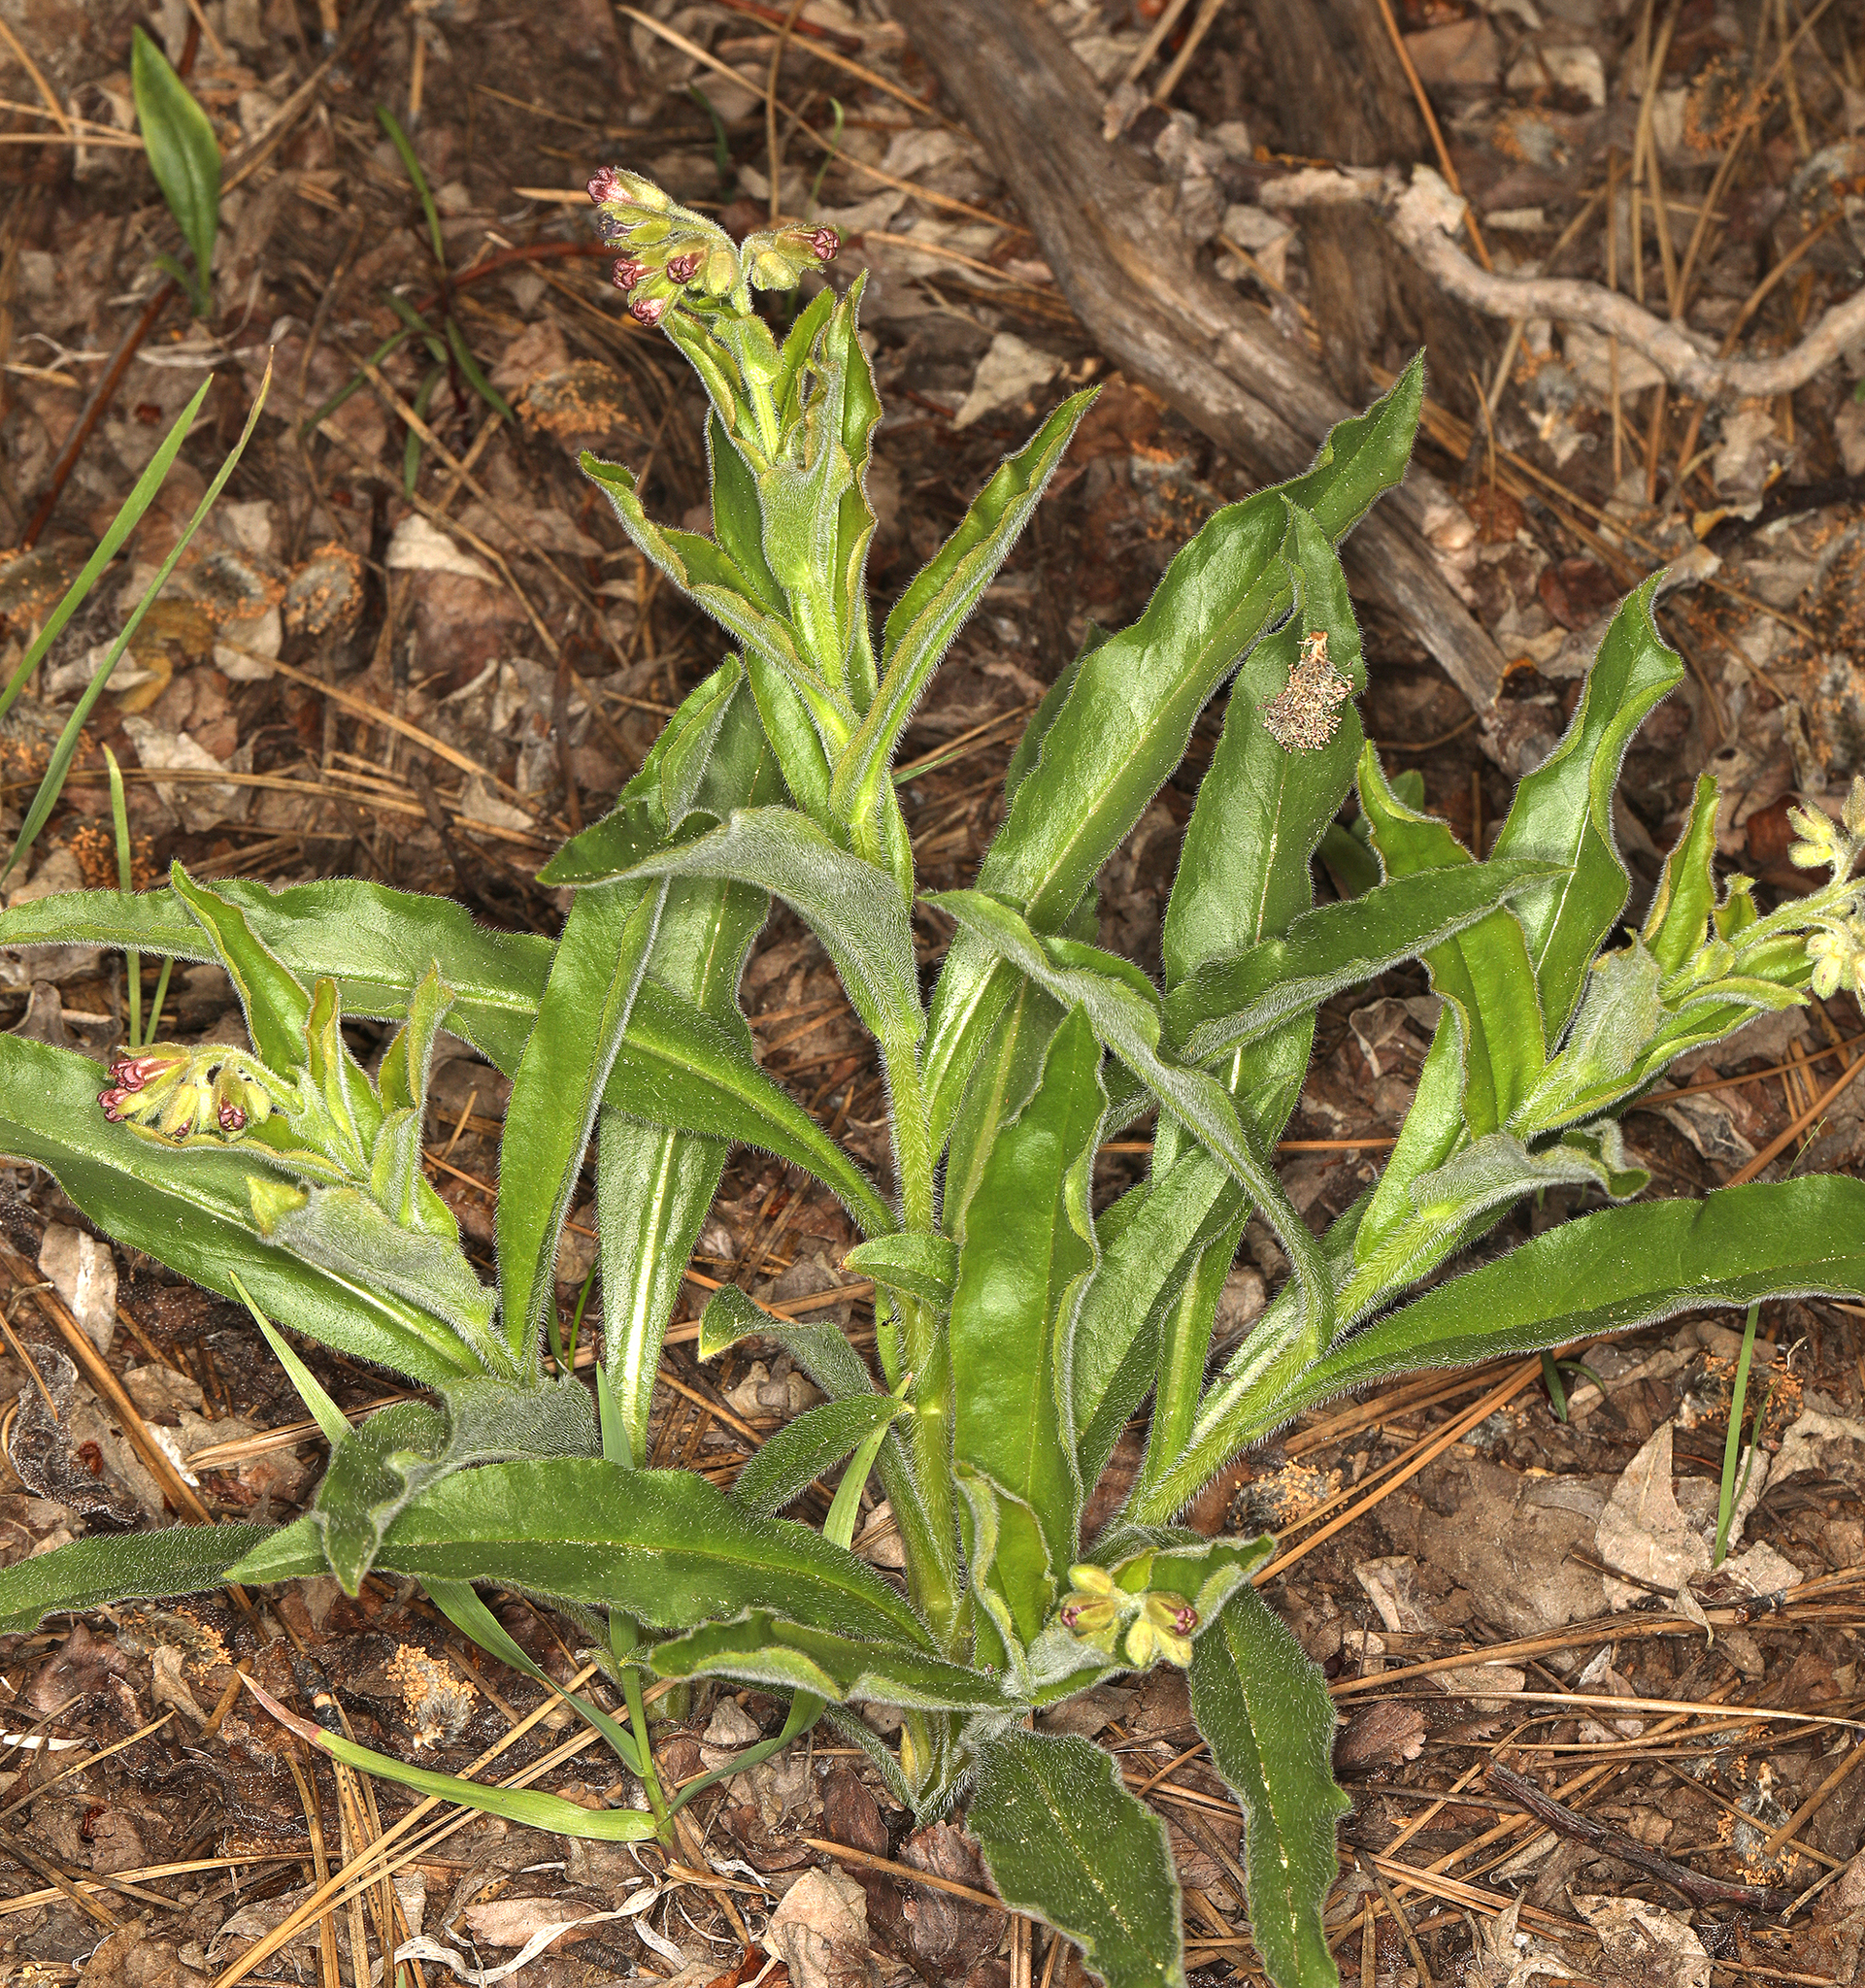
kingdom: Plantae
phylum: Tracheophyta
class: Magnoliopsida
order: Boraginales
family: Boraginaceae
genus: Andersonglossum
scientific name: Andersonglossum occidentale
